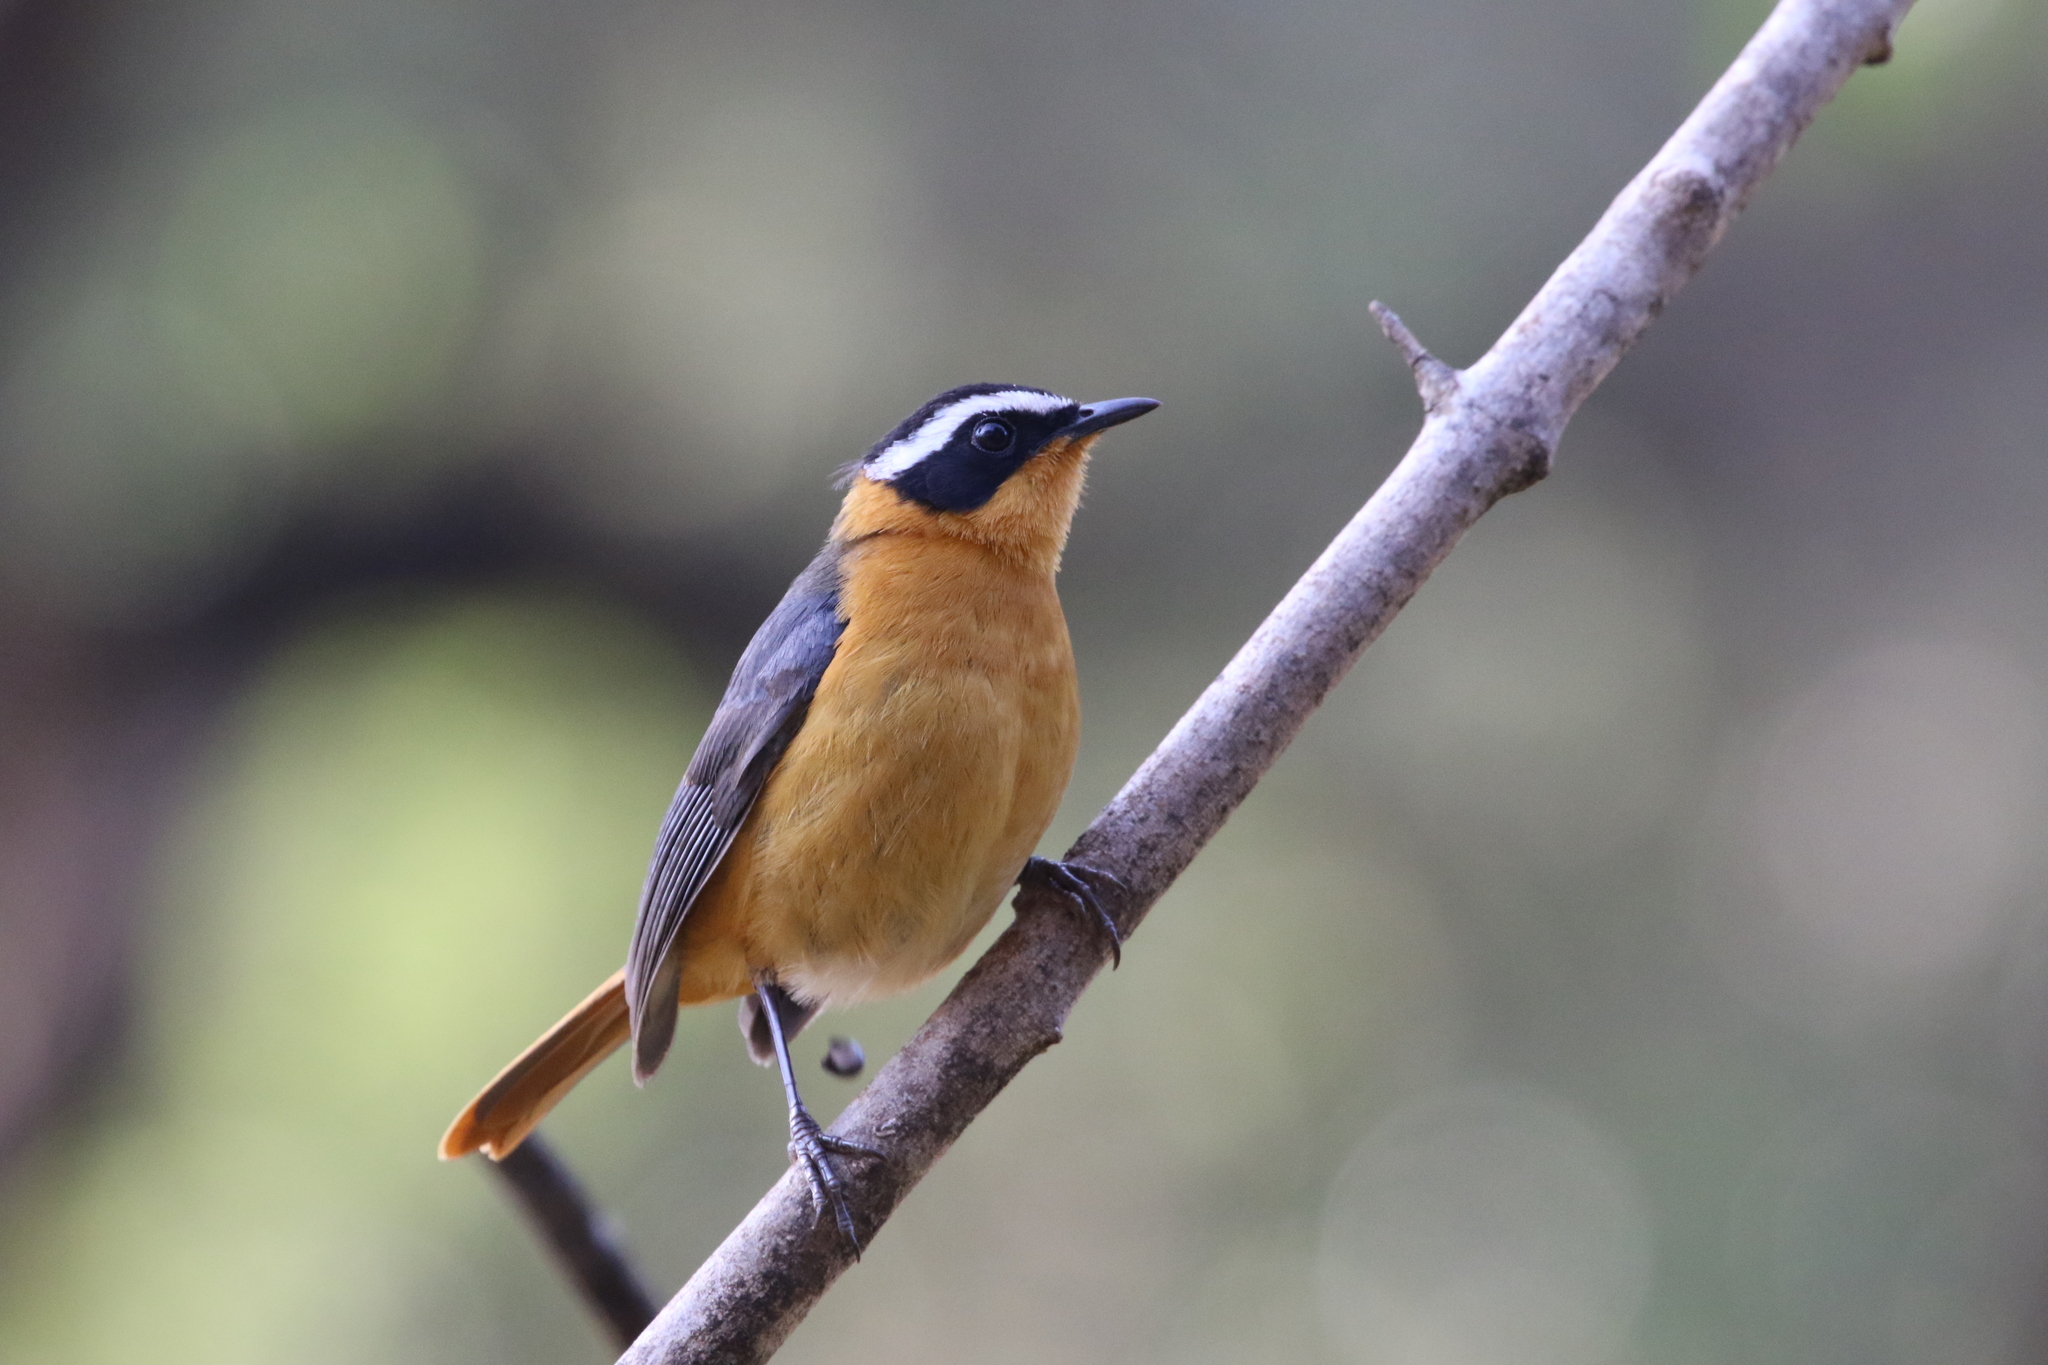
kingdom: Animalia
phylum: Chordata
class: Aves
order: Passeriformes
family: Muscicapidae
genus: Cossypha
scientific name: Cossypha heuglini
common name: White-browed robin-chat
